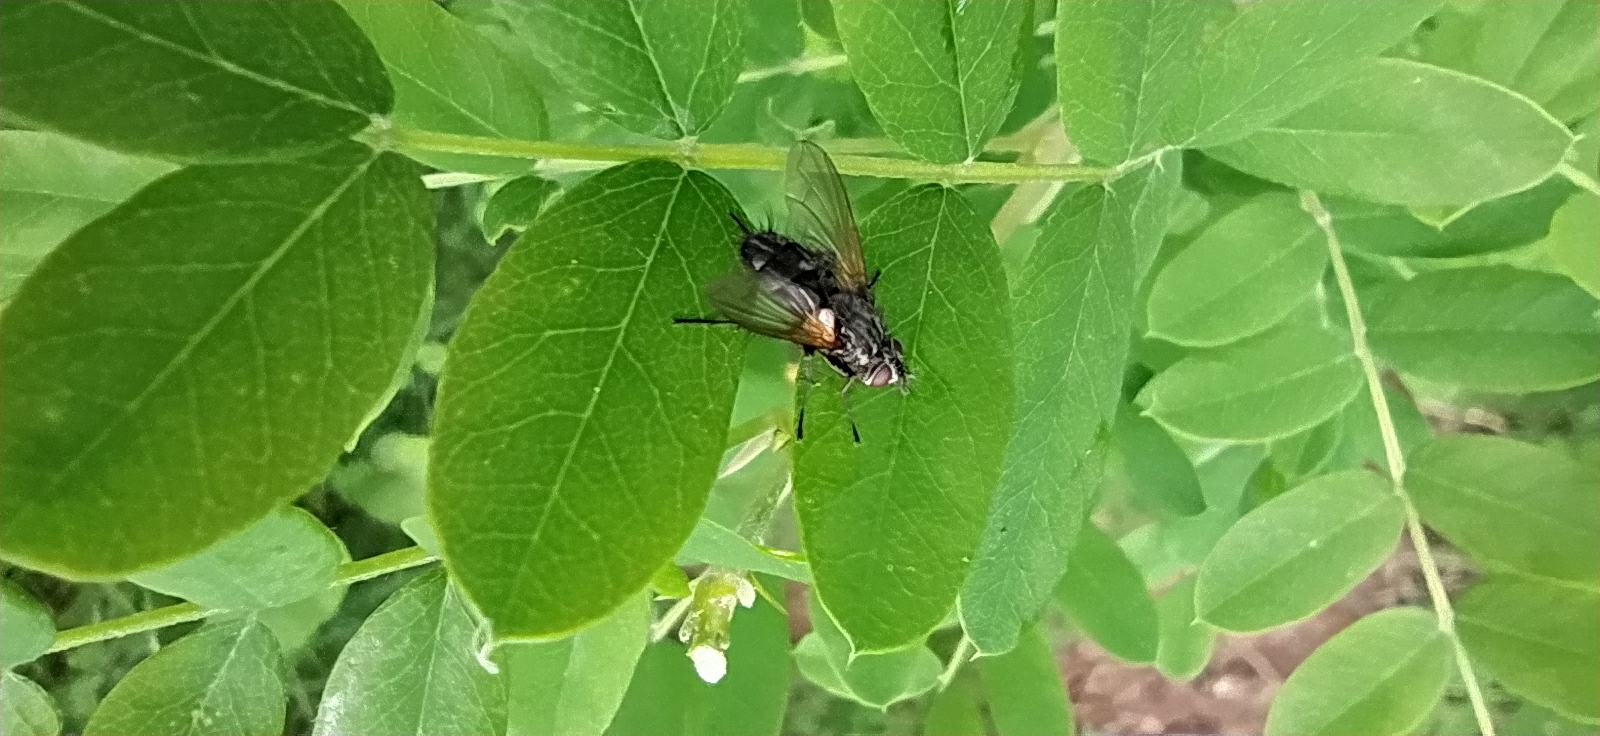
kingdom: Animalia
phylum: Arthropoda
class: Insecta
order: Diptera
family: Tachinidae
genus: Pelatachina
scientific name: Pelatachina tibialis
